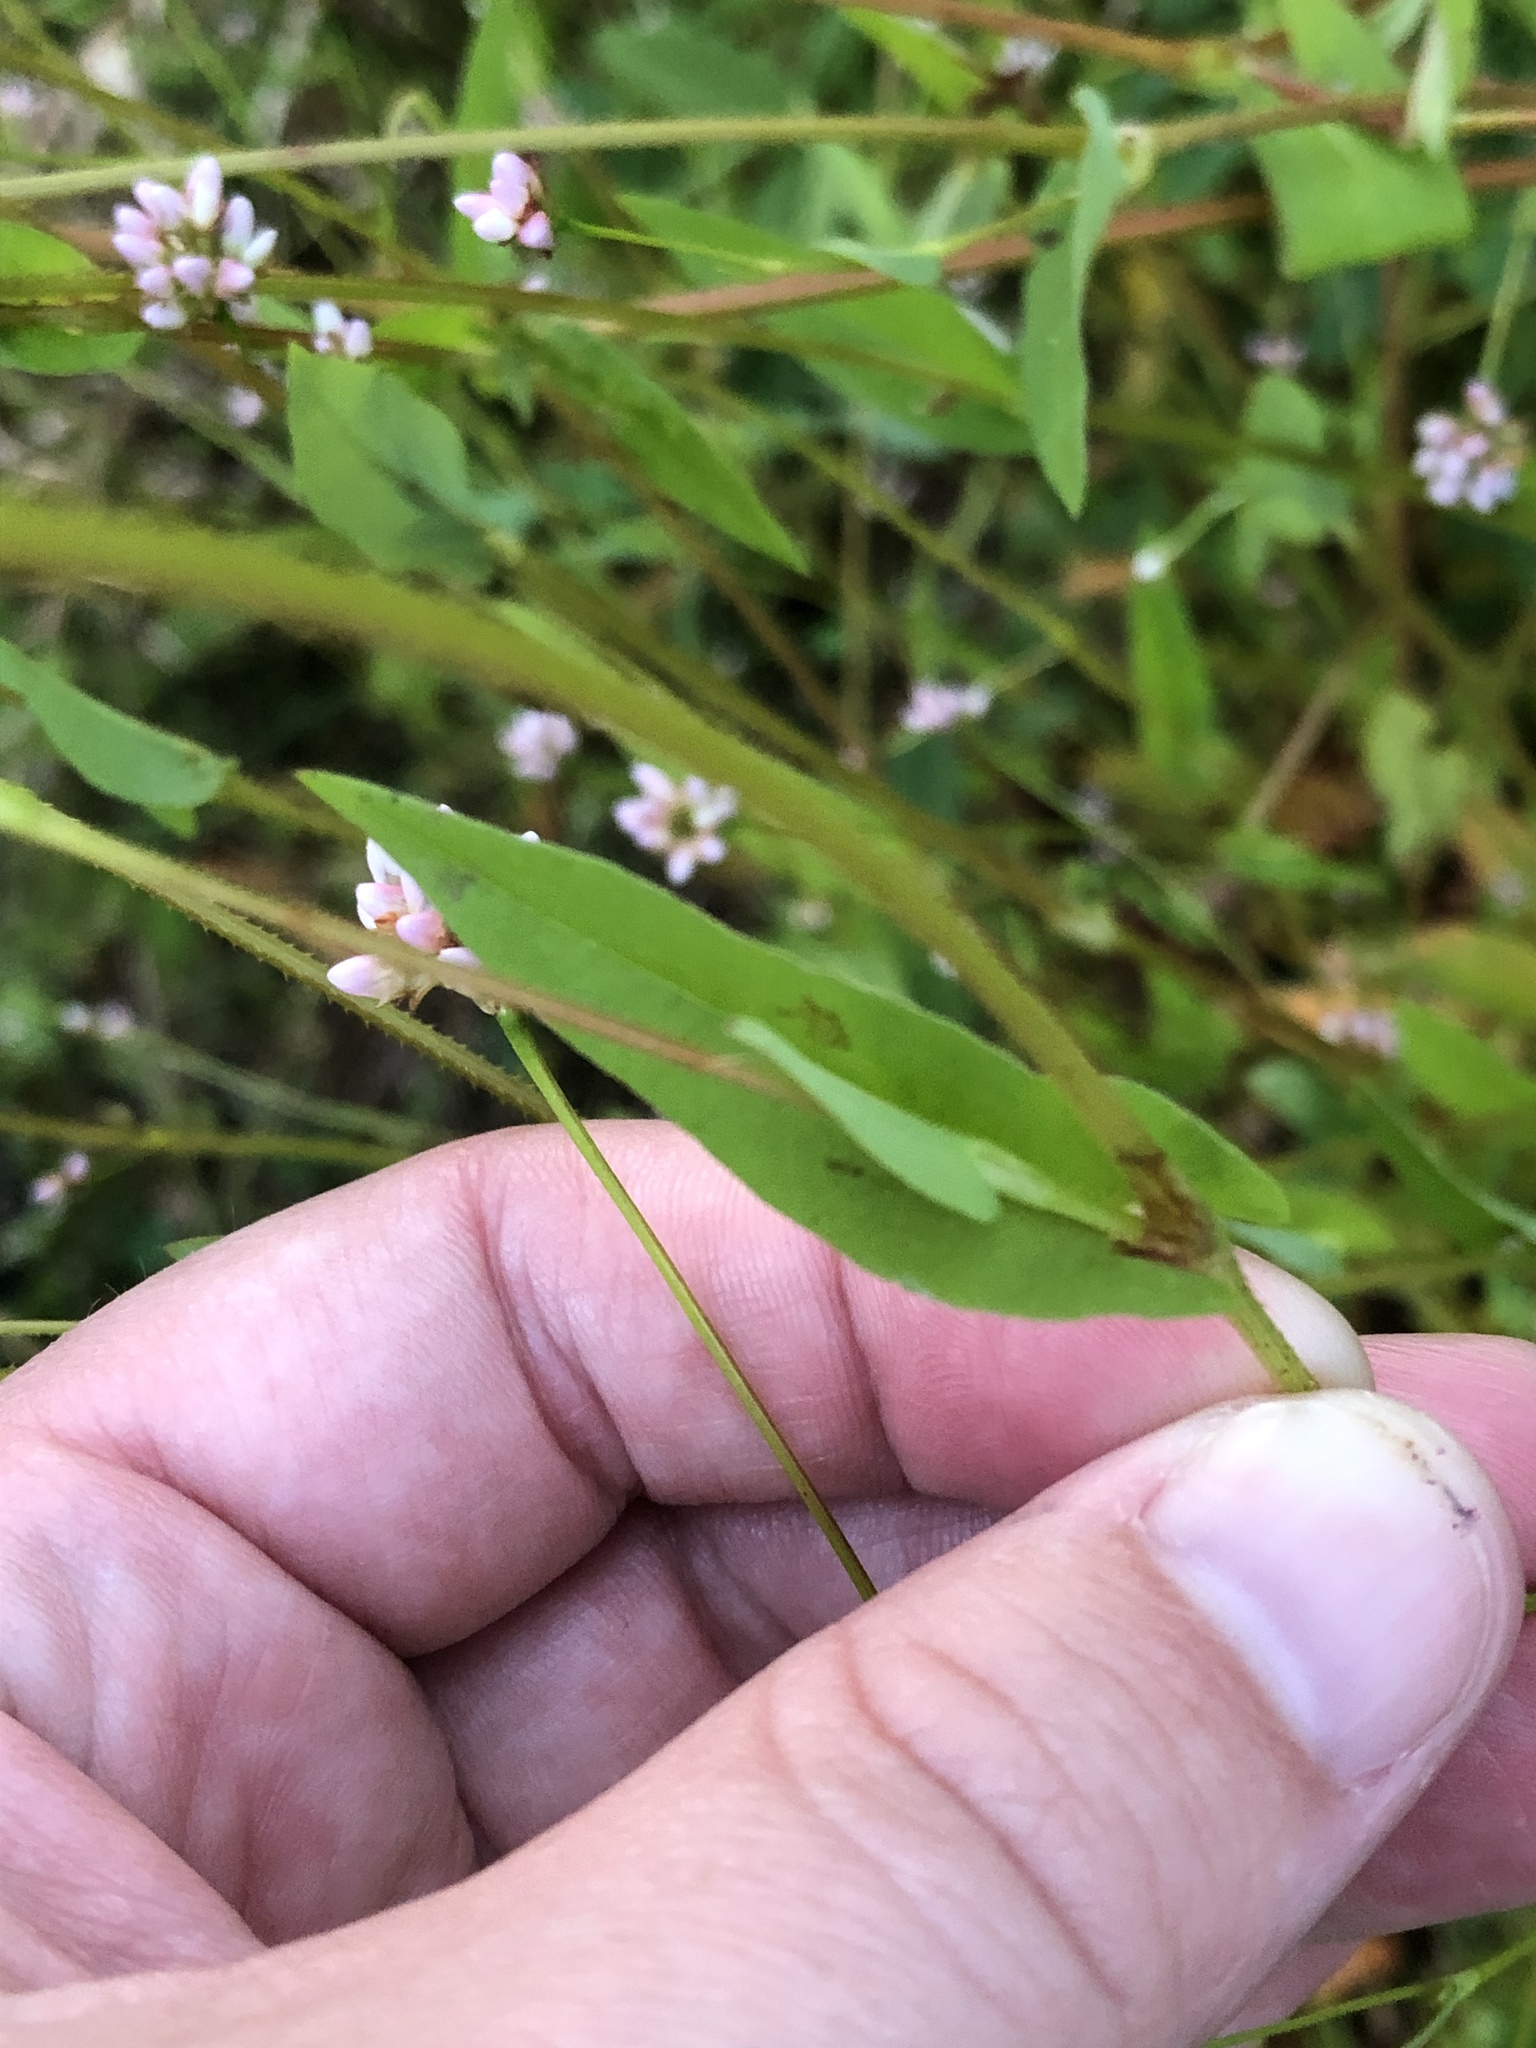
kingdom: Plantae
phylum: Tracheophyta
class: Magnoliopsida
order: Caryophyllales
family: Polygonaceae
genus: Persicaria
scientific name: Persicaria sagittata
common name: American tearthumb
